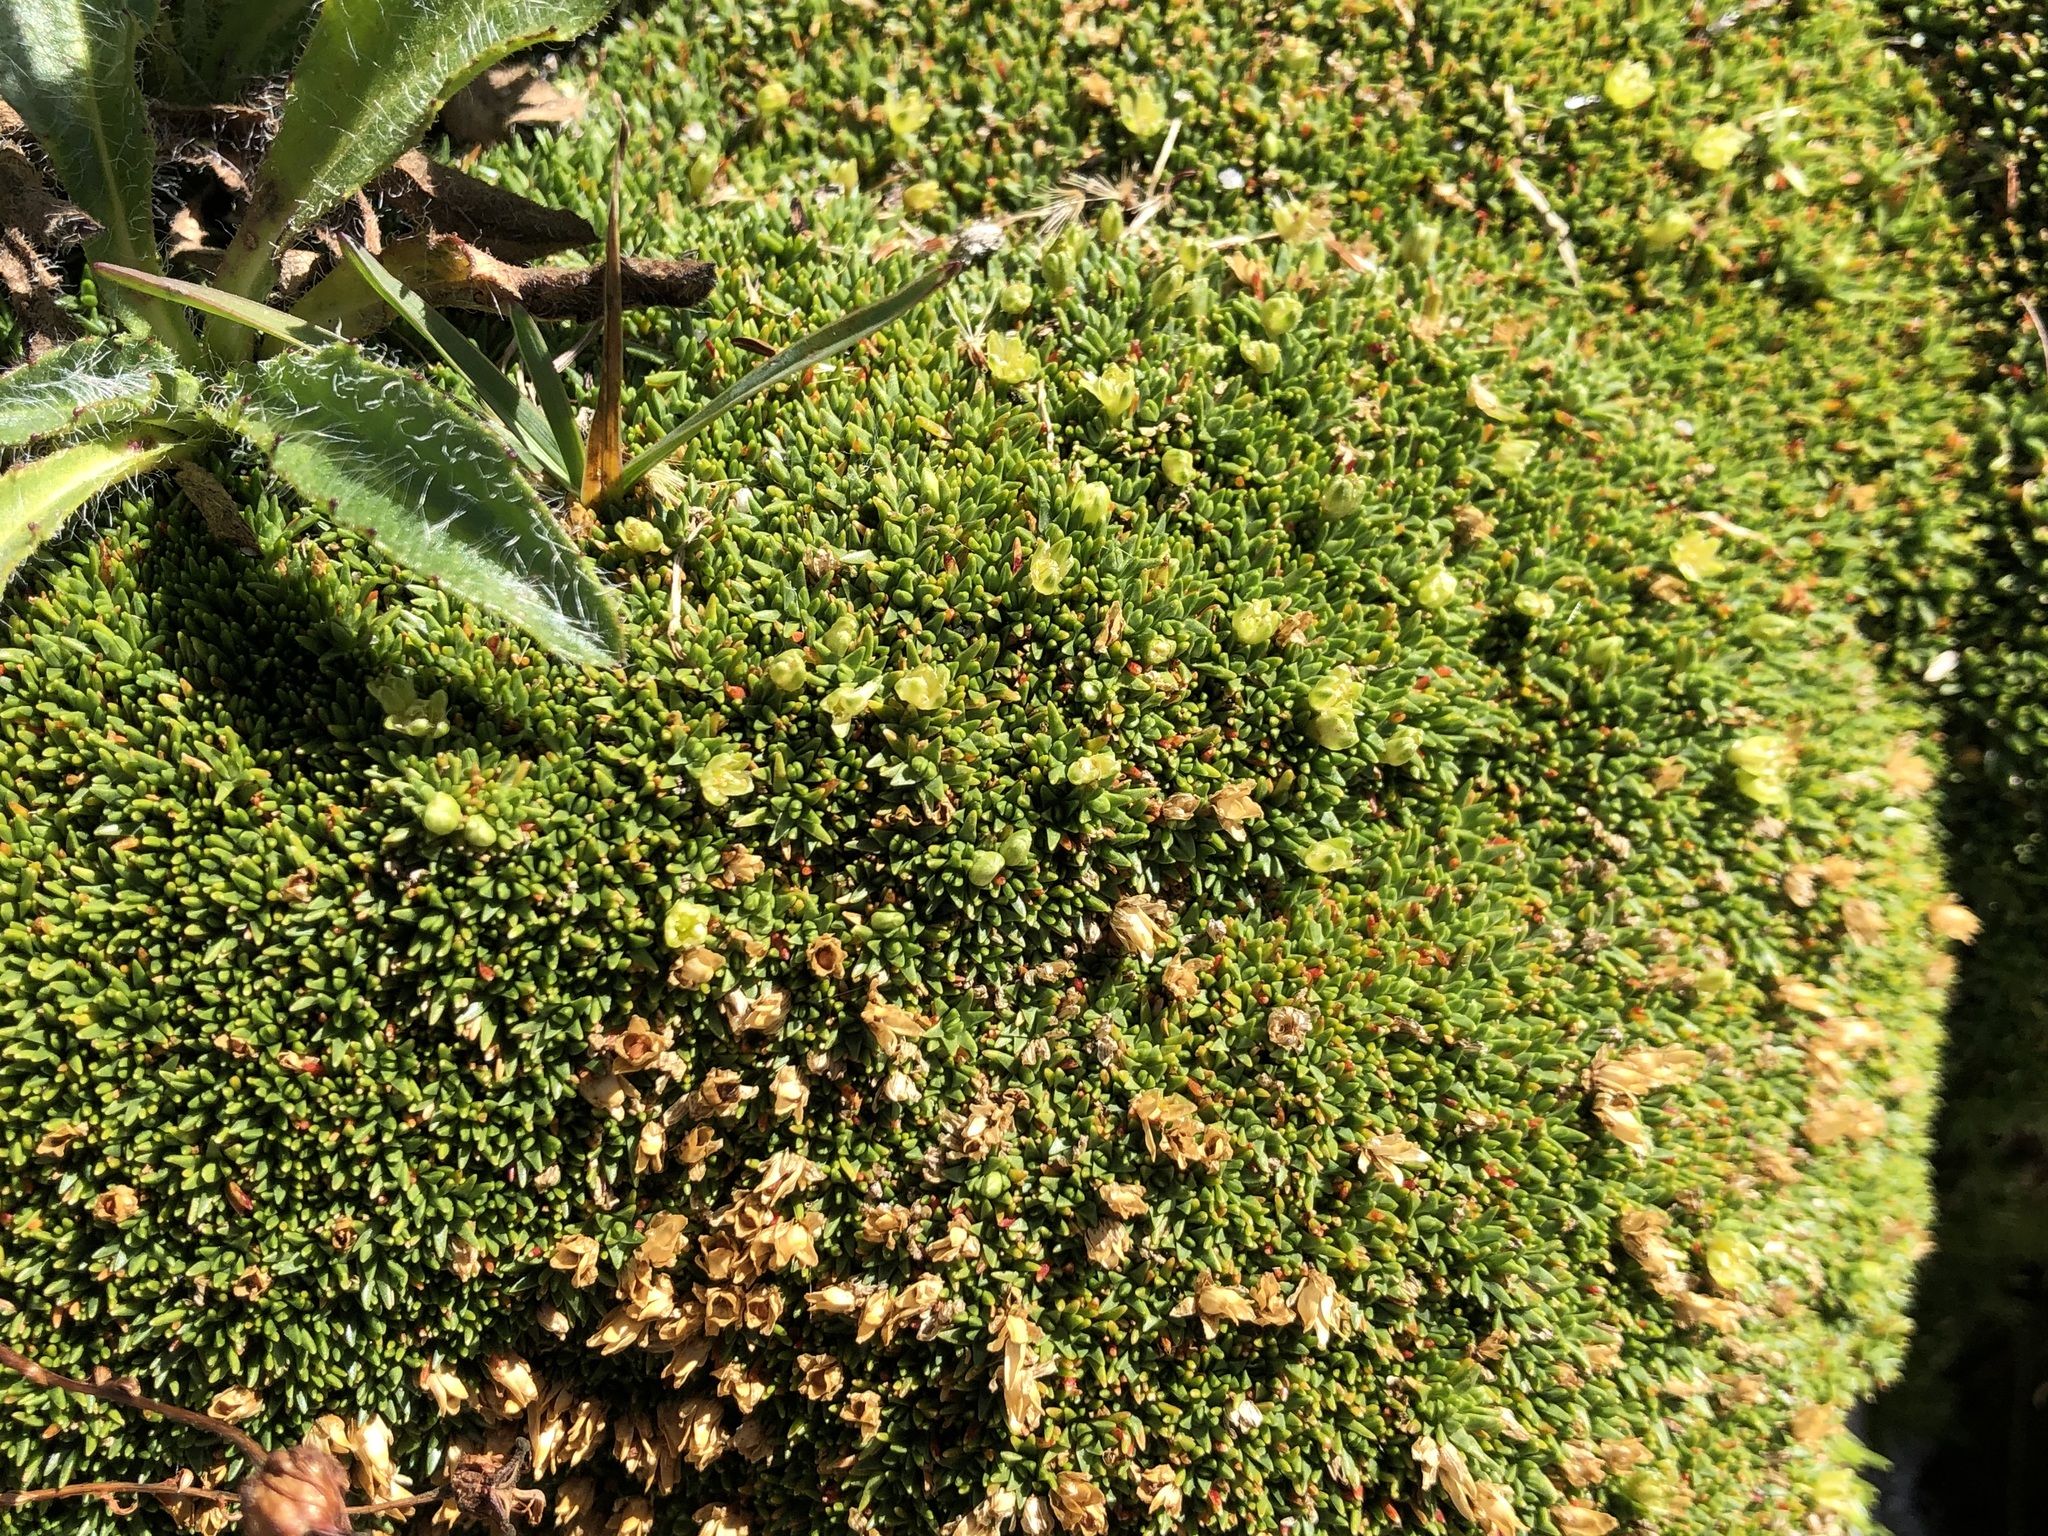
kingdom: Plantae
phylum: Tracheophyta
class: Magnoliopsida
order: Caryophyllales
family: Caryophyllaceae
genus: Cherleria
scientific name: Cherleria sedoides
